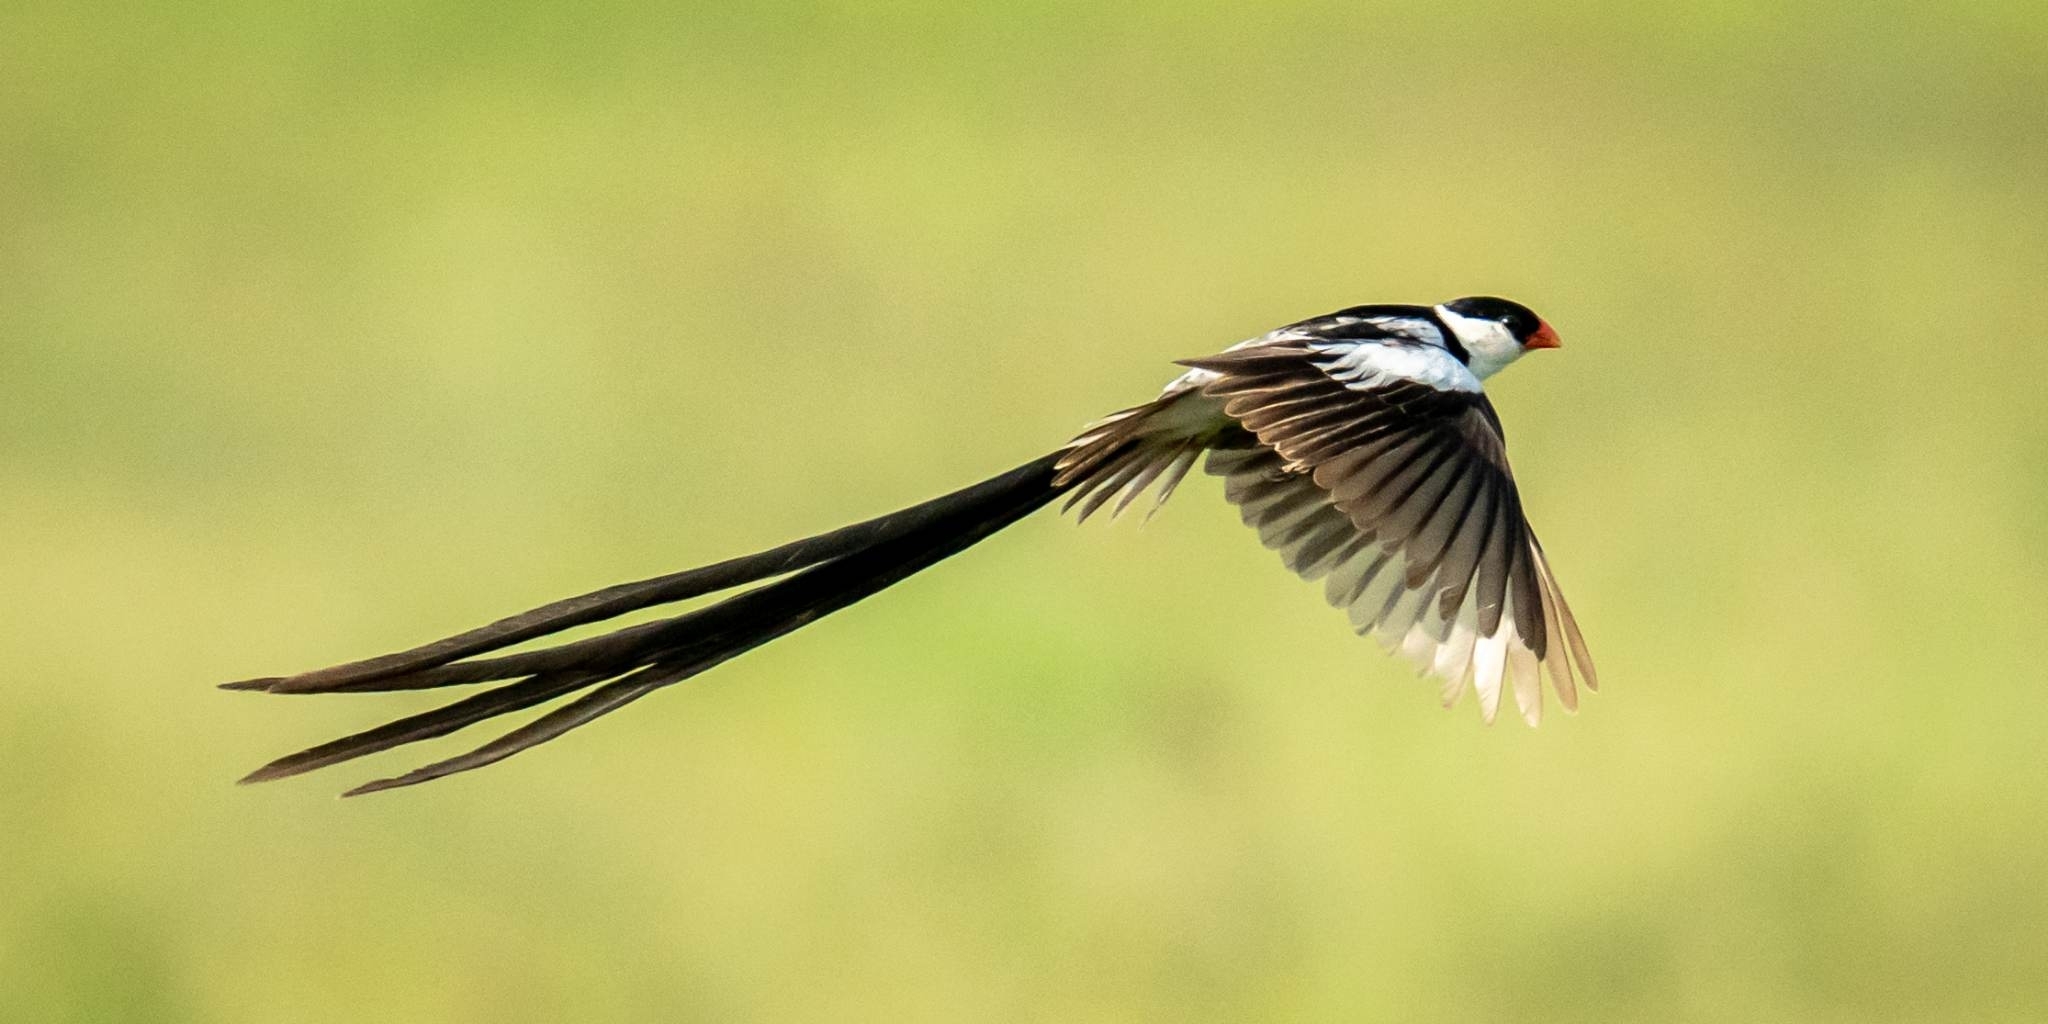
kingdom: Animalia
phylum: Chordata
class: Aves
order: Passeriformes
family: Viduidae
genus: Vidua
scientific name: Vidua macroura
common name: Pin-tailed whydah
